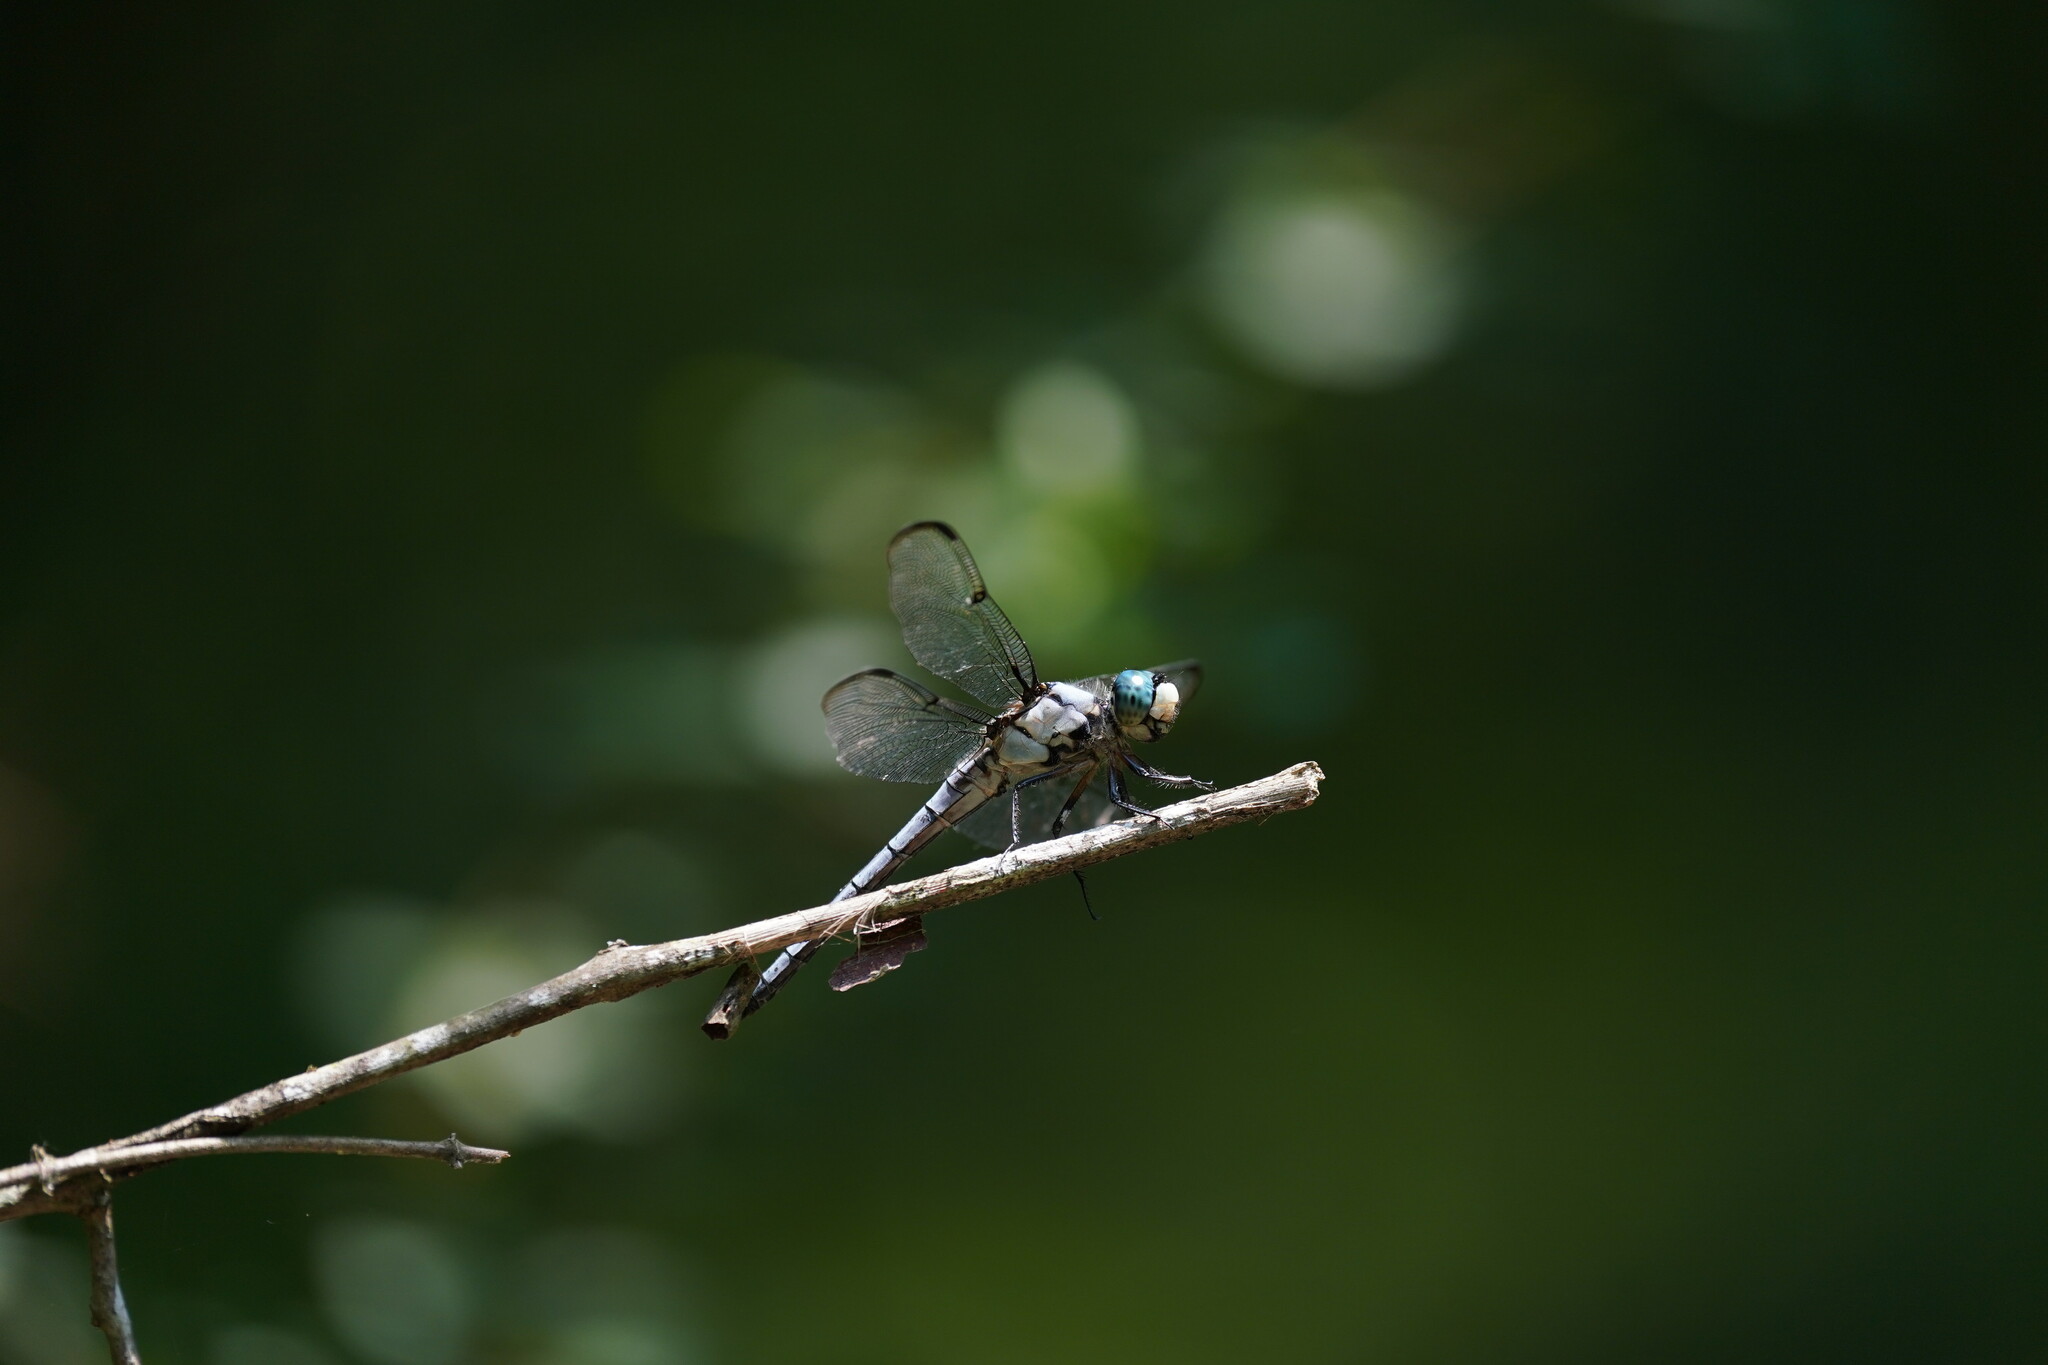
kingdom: Animalia
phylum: Arthropoda
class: Insecta
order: Odonata
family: Libellulidae
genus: Libellula
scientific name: Libellula vibrans
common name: Great blue skimmer
